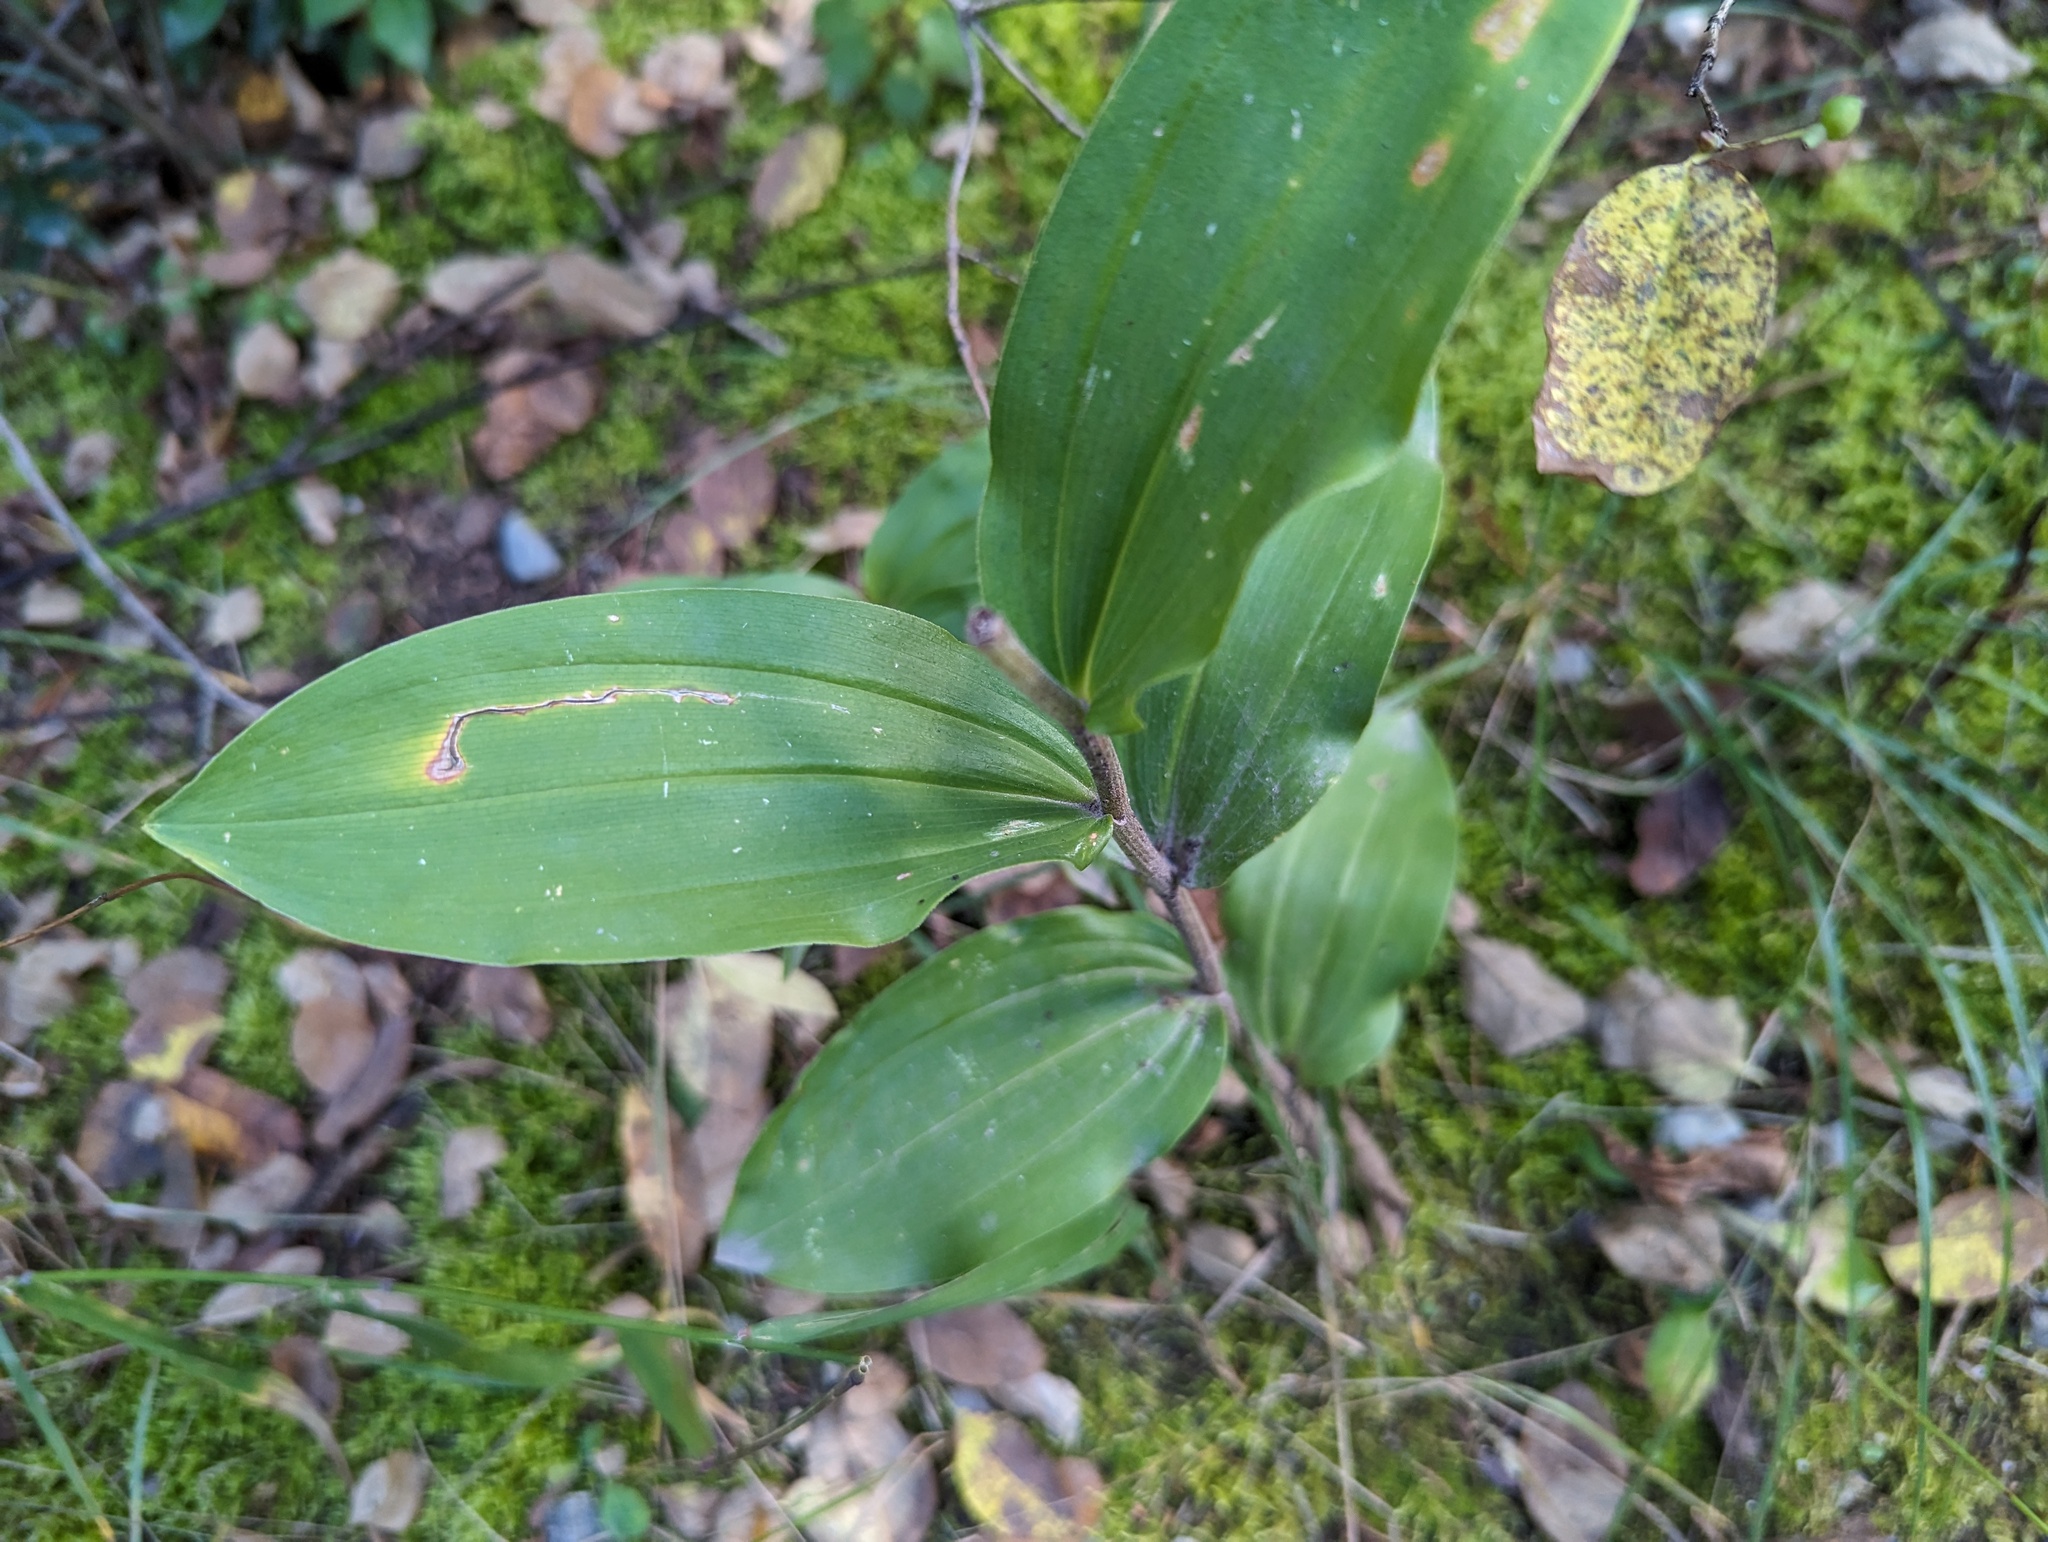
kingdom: Plantae
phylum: Tracheophyta
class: Liliopsida
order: Asparagales
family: Asparagaceae
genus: Maianthemum
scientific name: Maianthemum racemosum
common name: False spikenard
